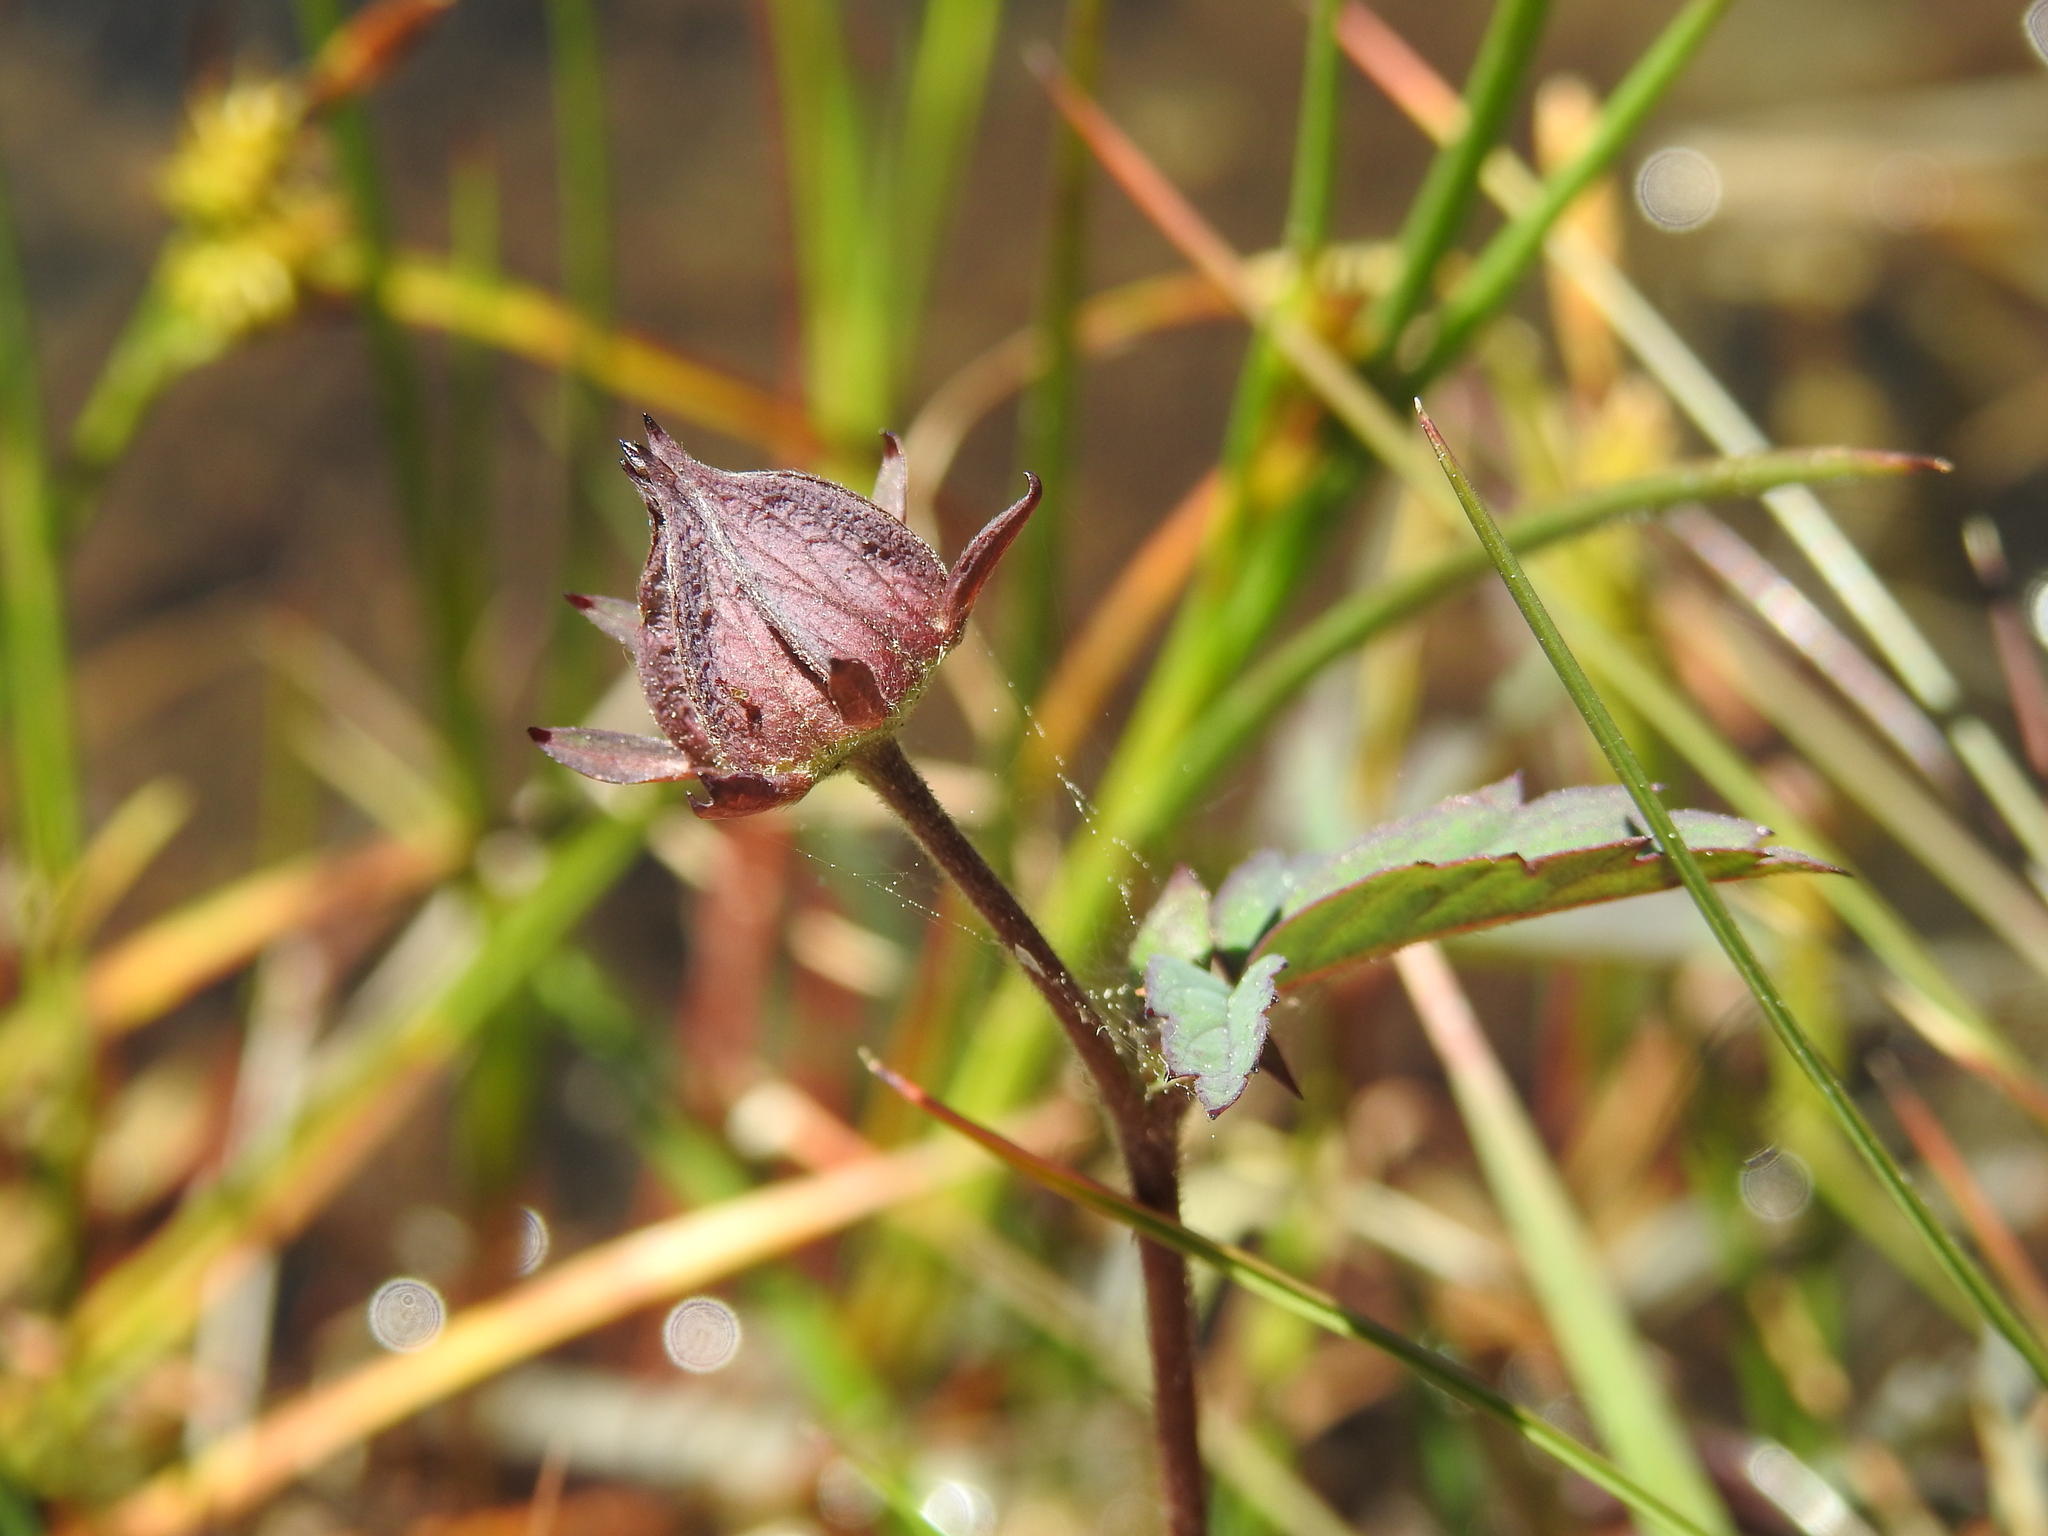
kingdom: Plantae
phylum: Tracheophyta
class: Magnoliopsida
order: Rosales
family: Rosaceae
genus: Comarum
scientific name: Comarum palustre
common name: Marsh cinquefoil
